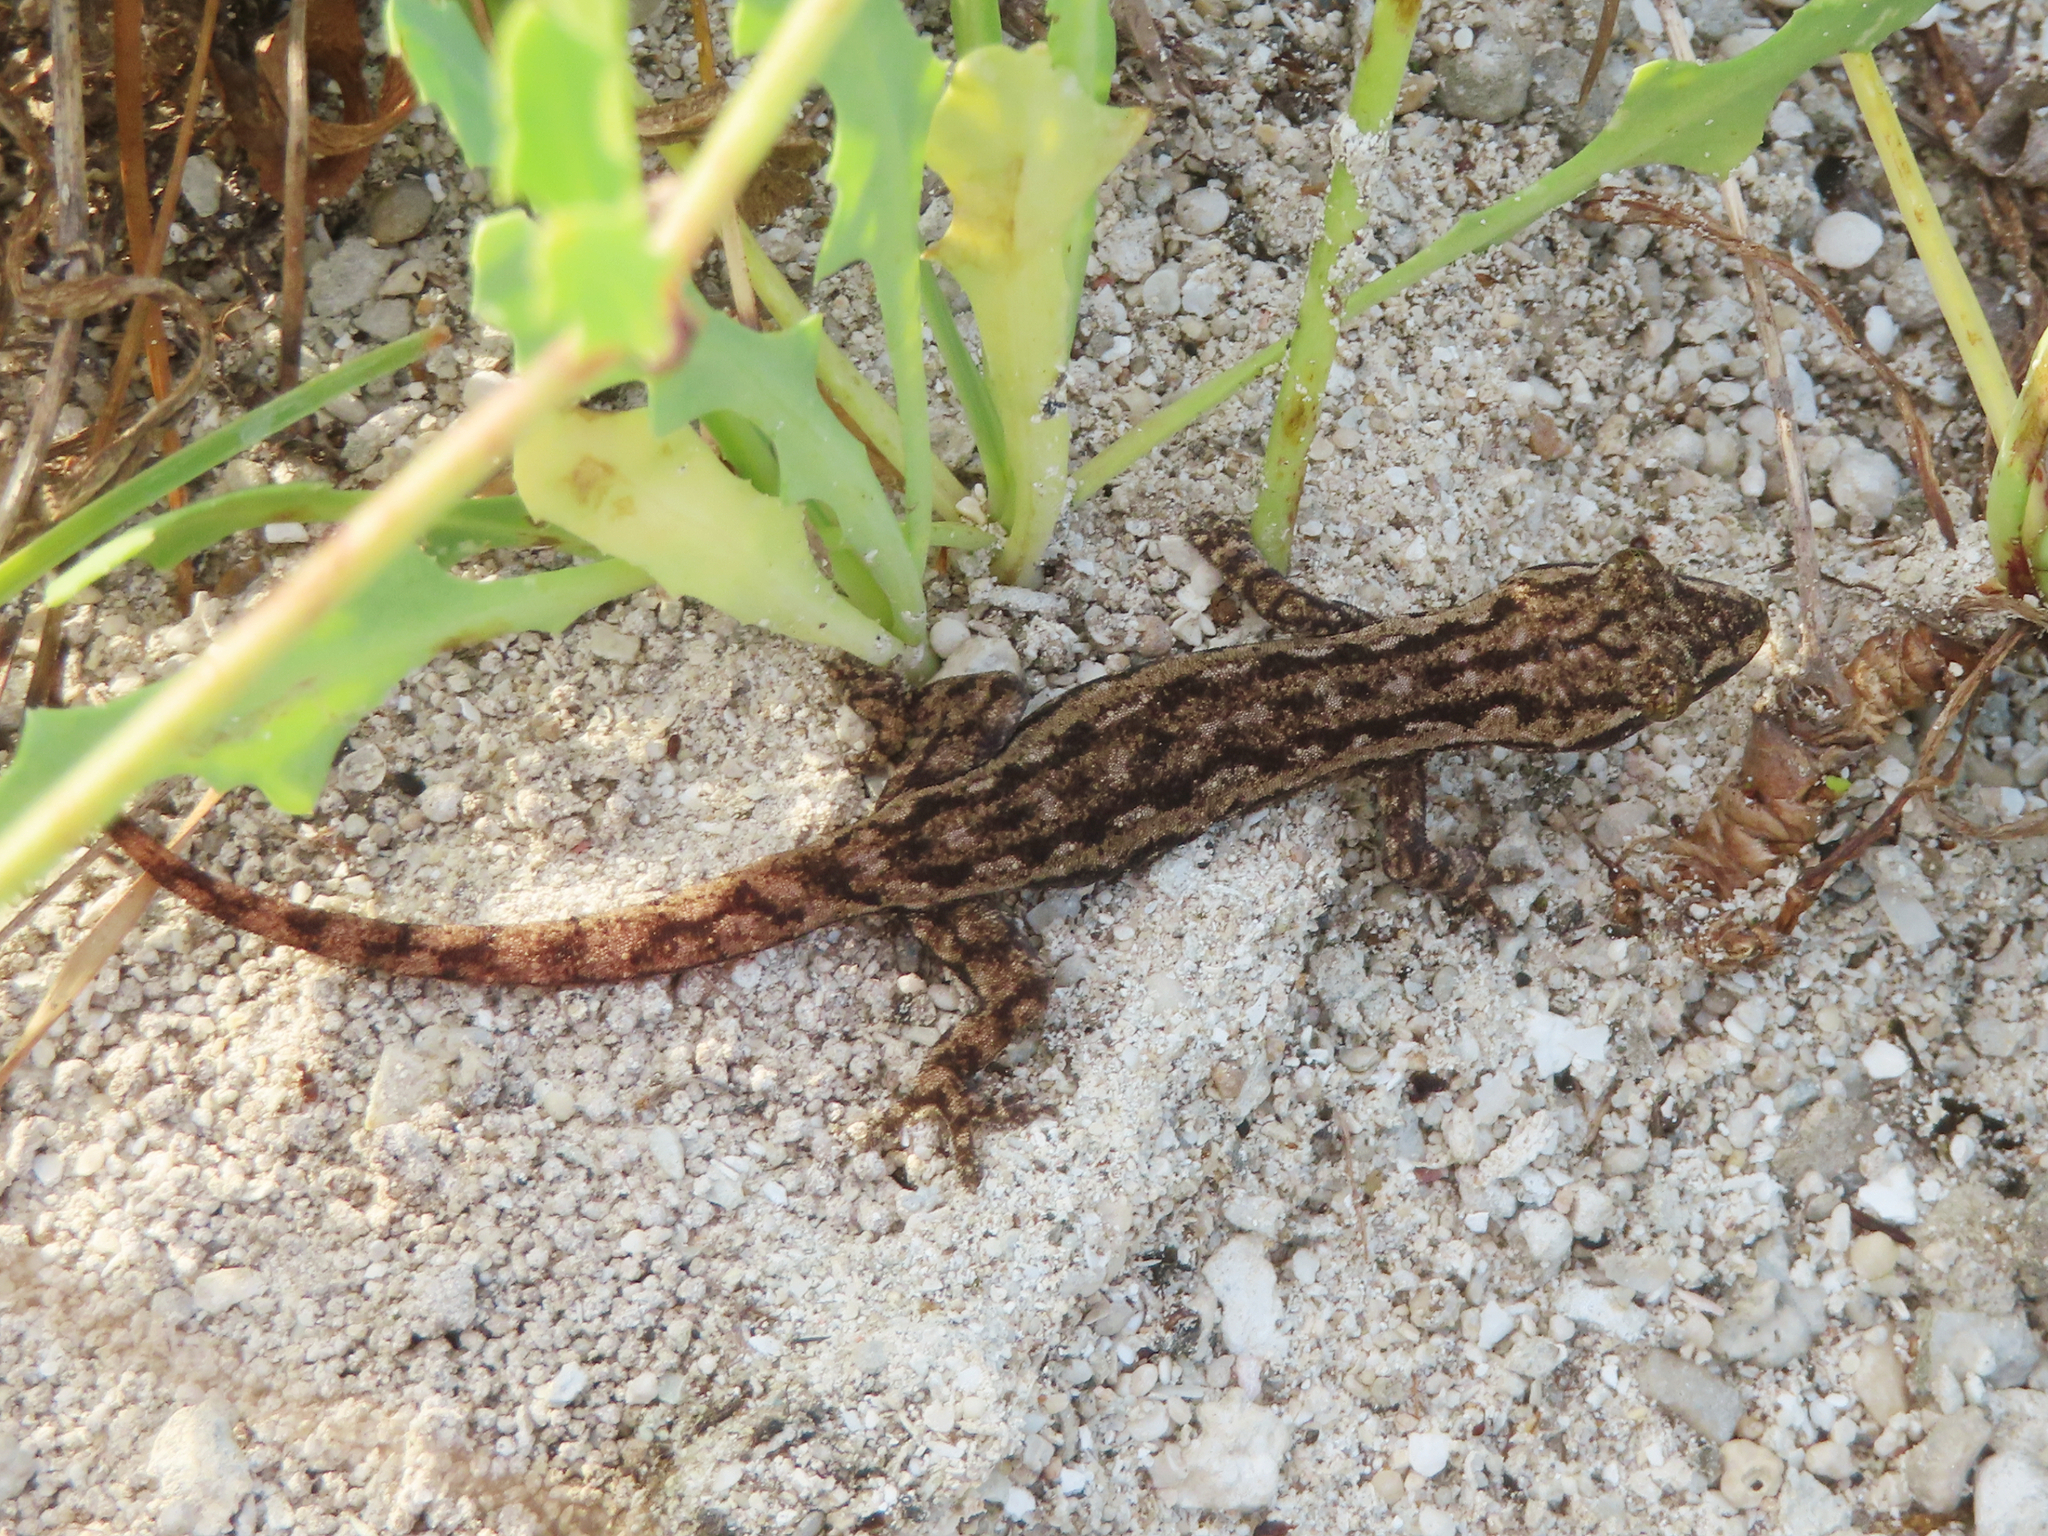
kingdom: Animalia
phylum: Chordata
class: Squamata
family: Gekkonidae
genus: Hemidactylus
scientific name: Hemidactylus frenatus
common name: Common house gecko
